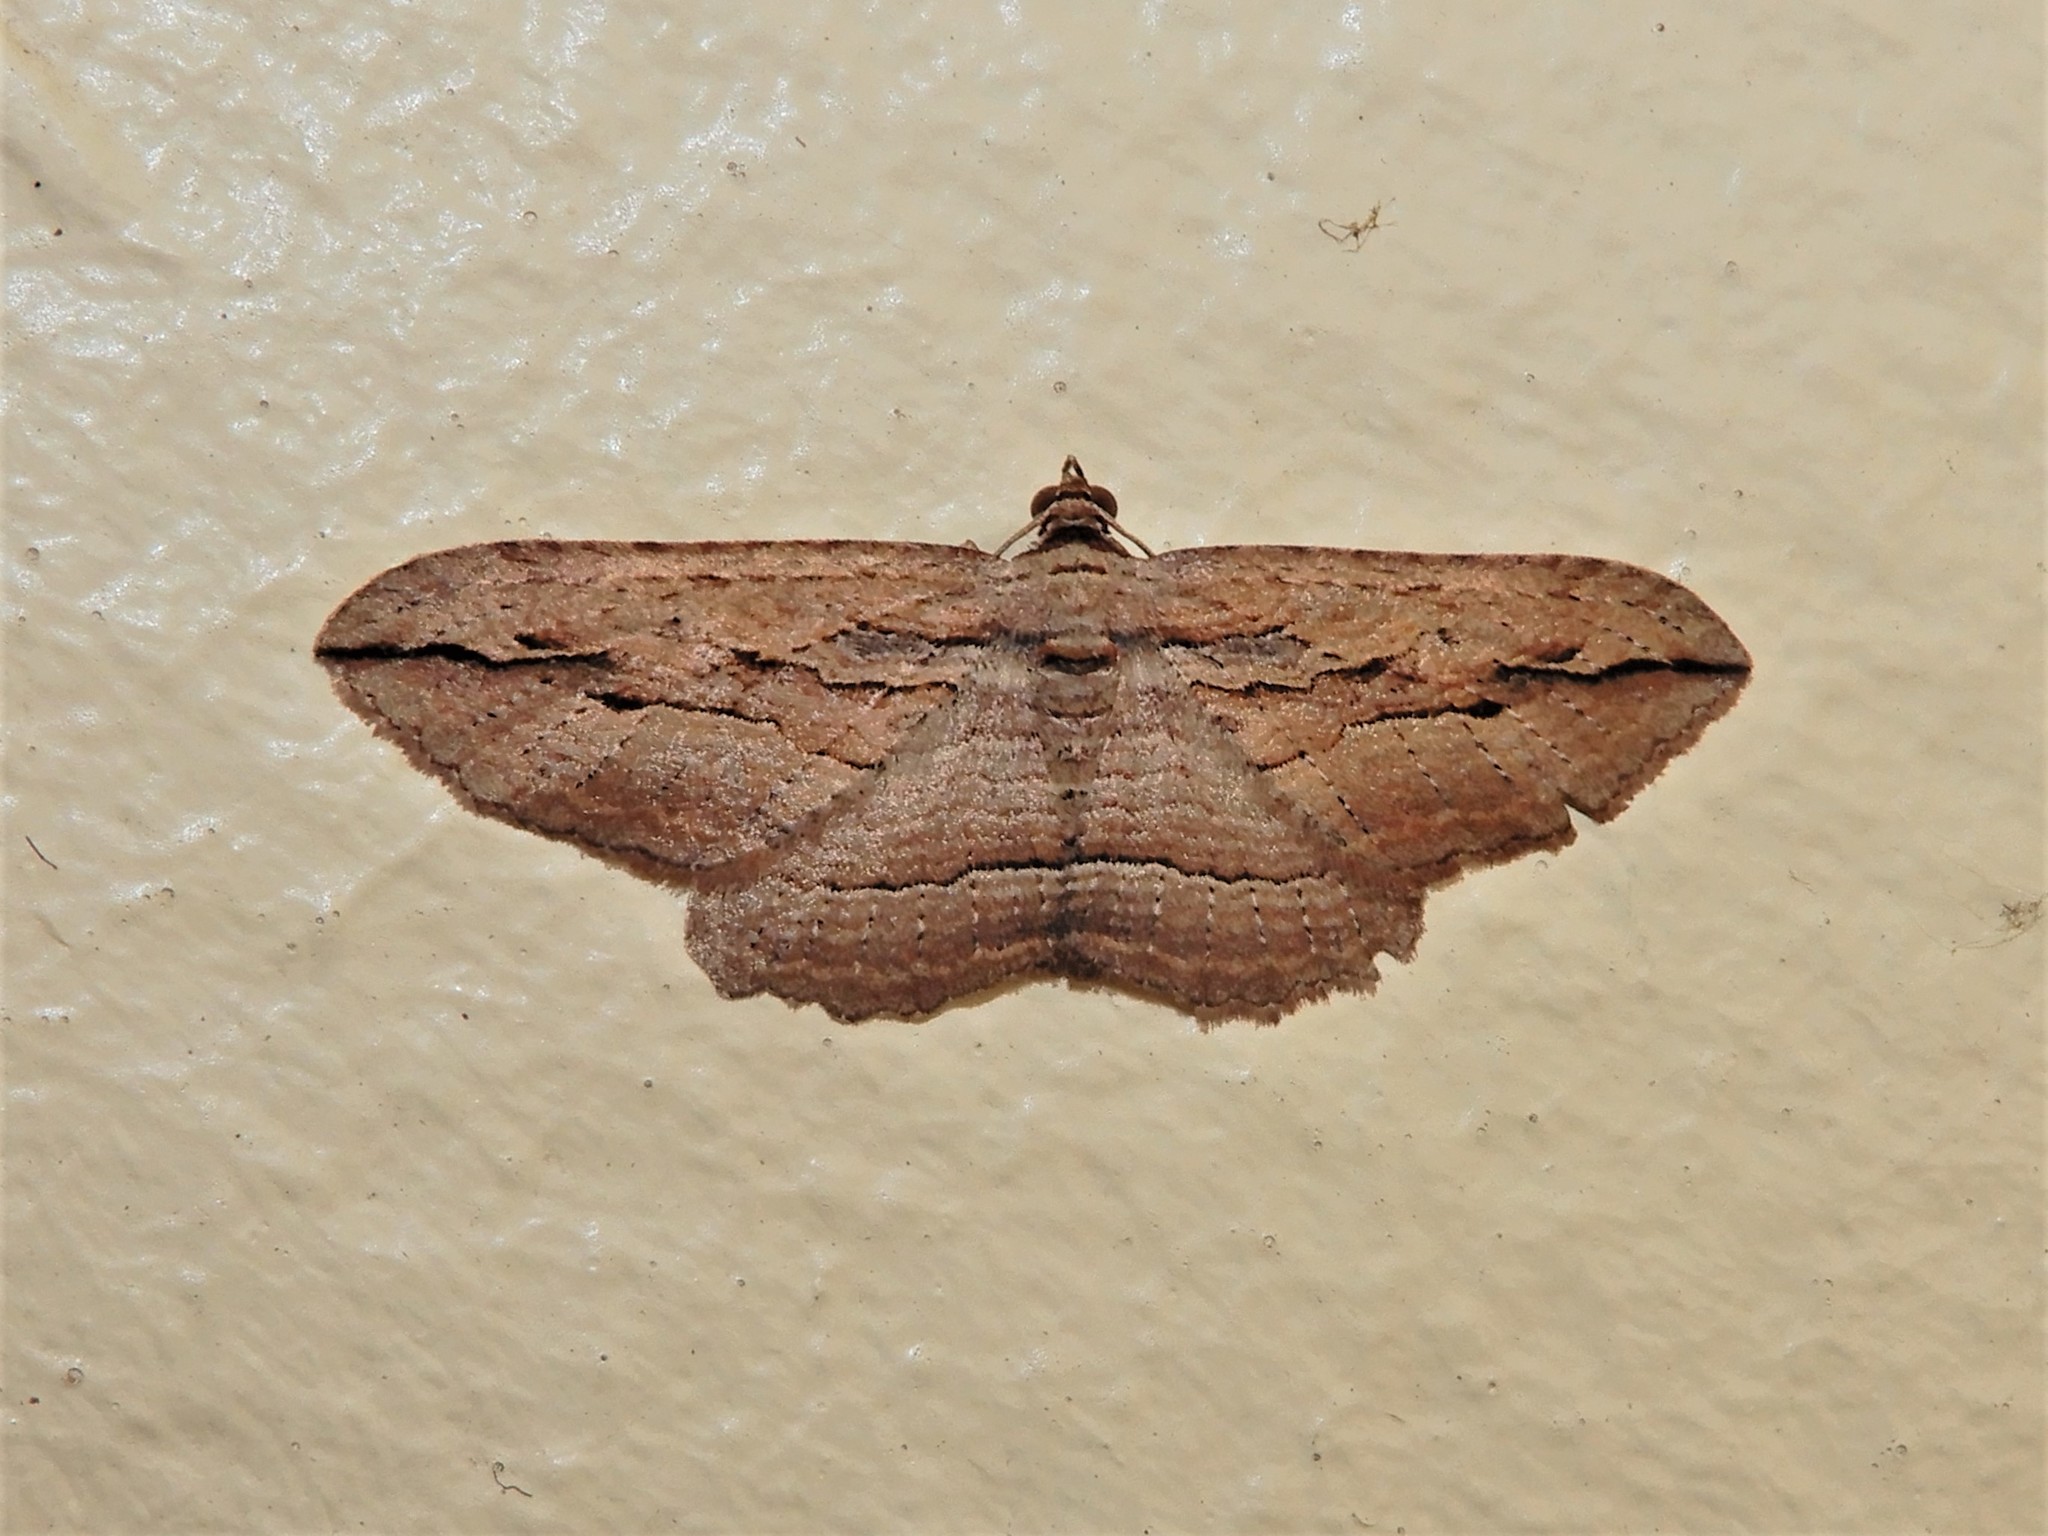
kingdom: Animalia
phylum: Arthropoda
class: Insecta
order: Lepidoptera
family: Geometridae
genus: Austrocidaria
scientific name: Austrocidaria gobiata
